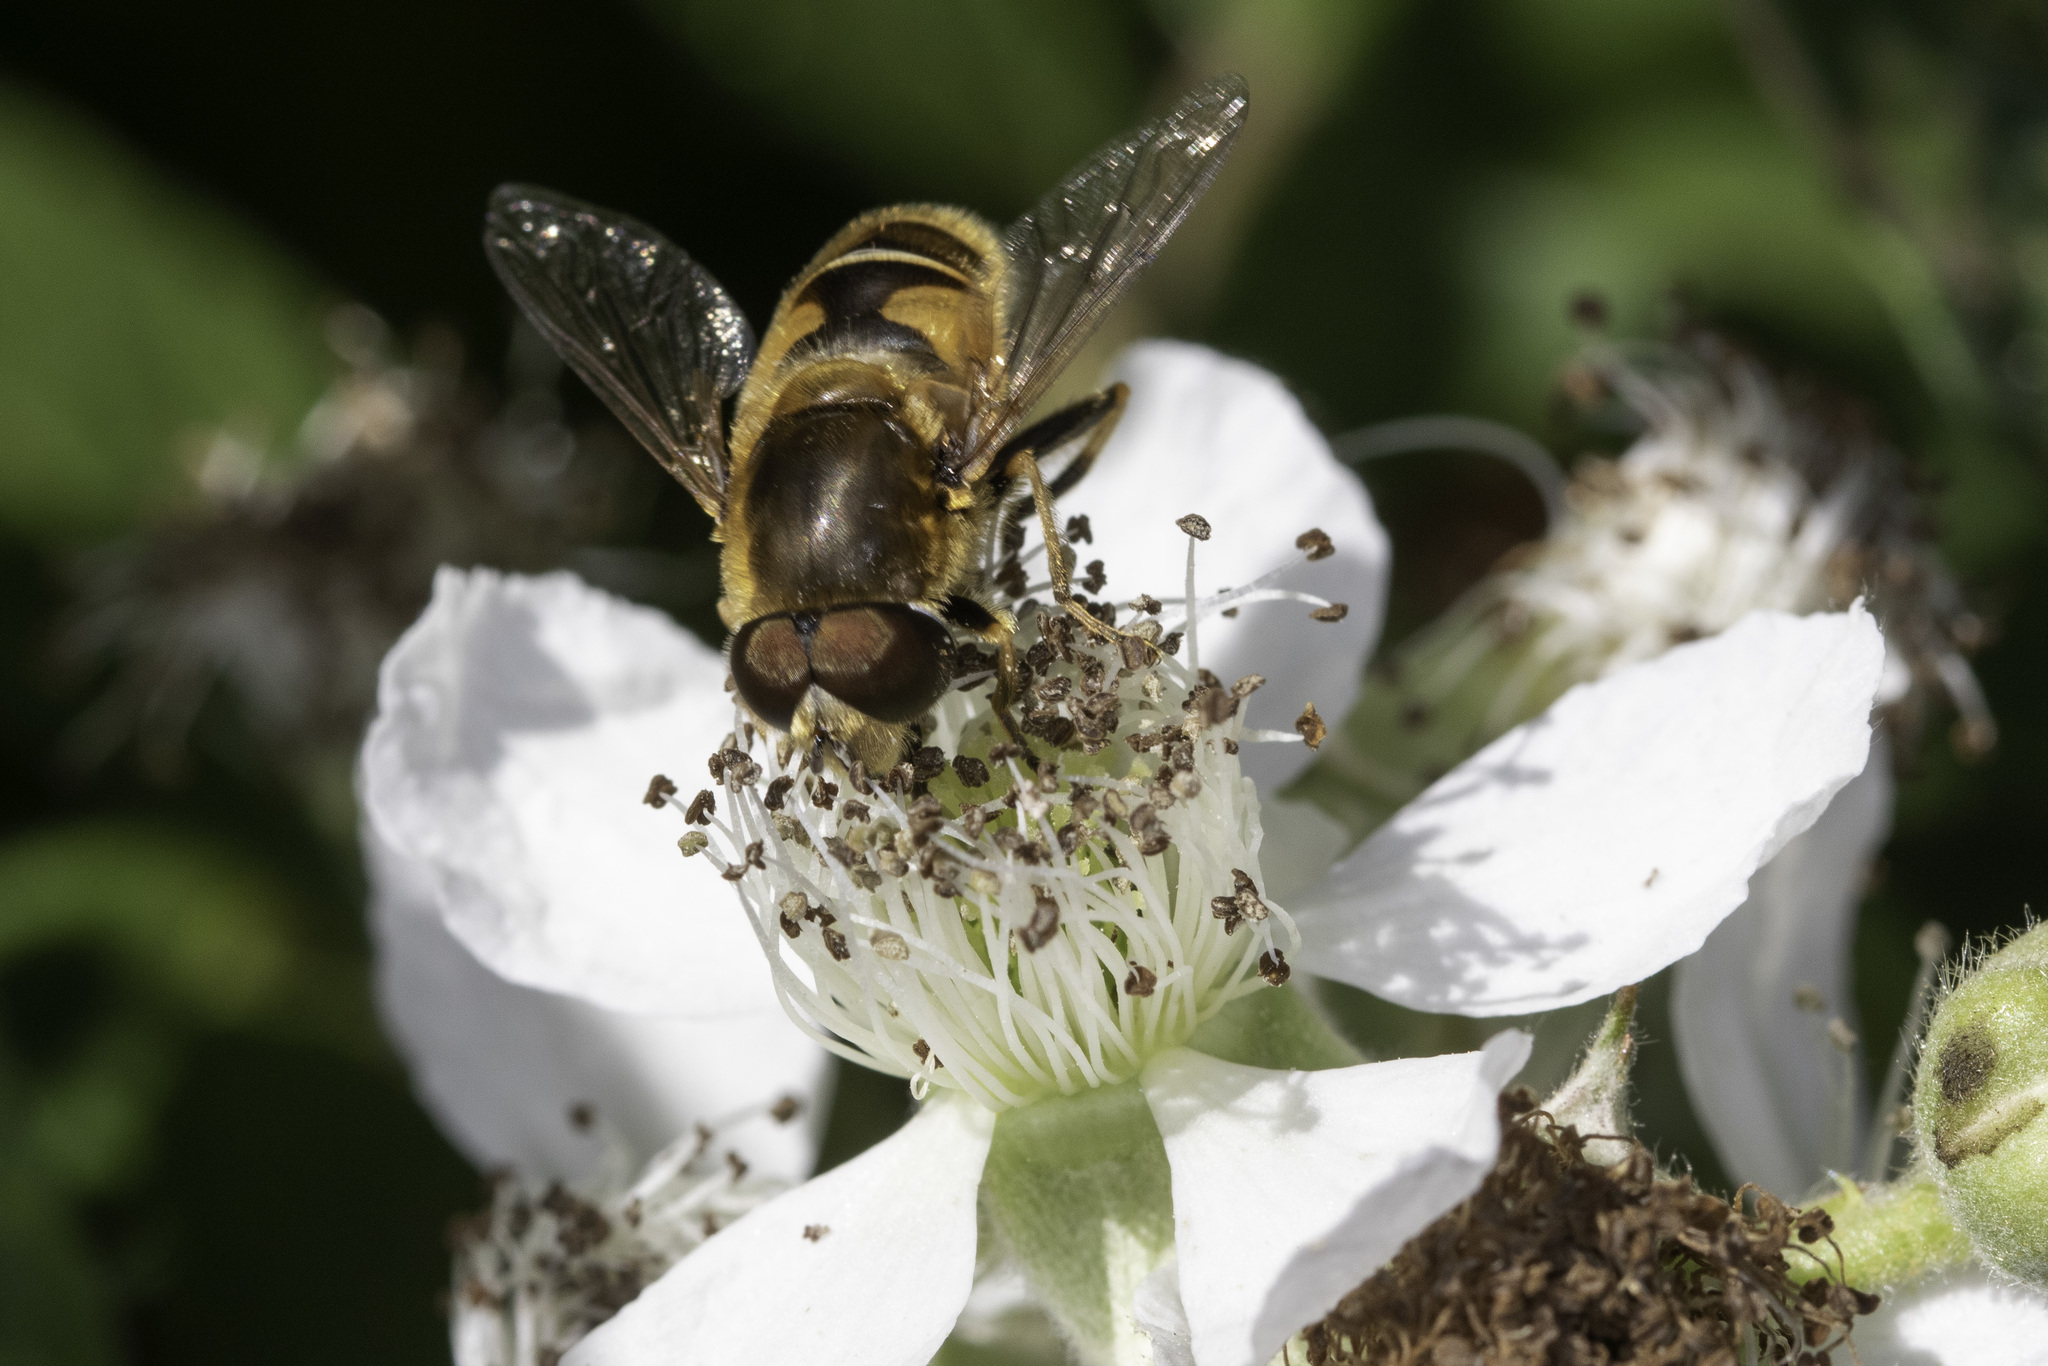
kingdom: Animalia
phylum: Arthropoda
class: Insecta
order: Diptera
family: Syrphidae
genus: Eristalis
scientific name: Eristalis nemorum
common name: Orange-spined drone fly
